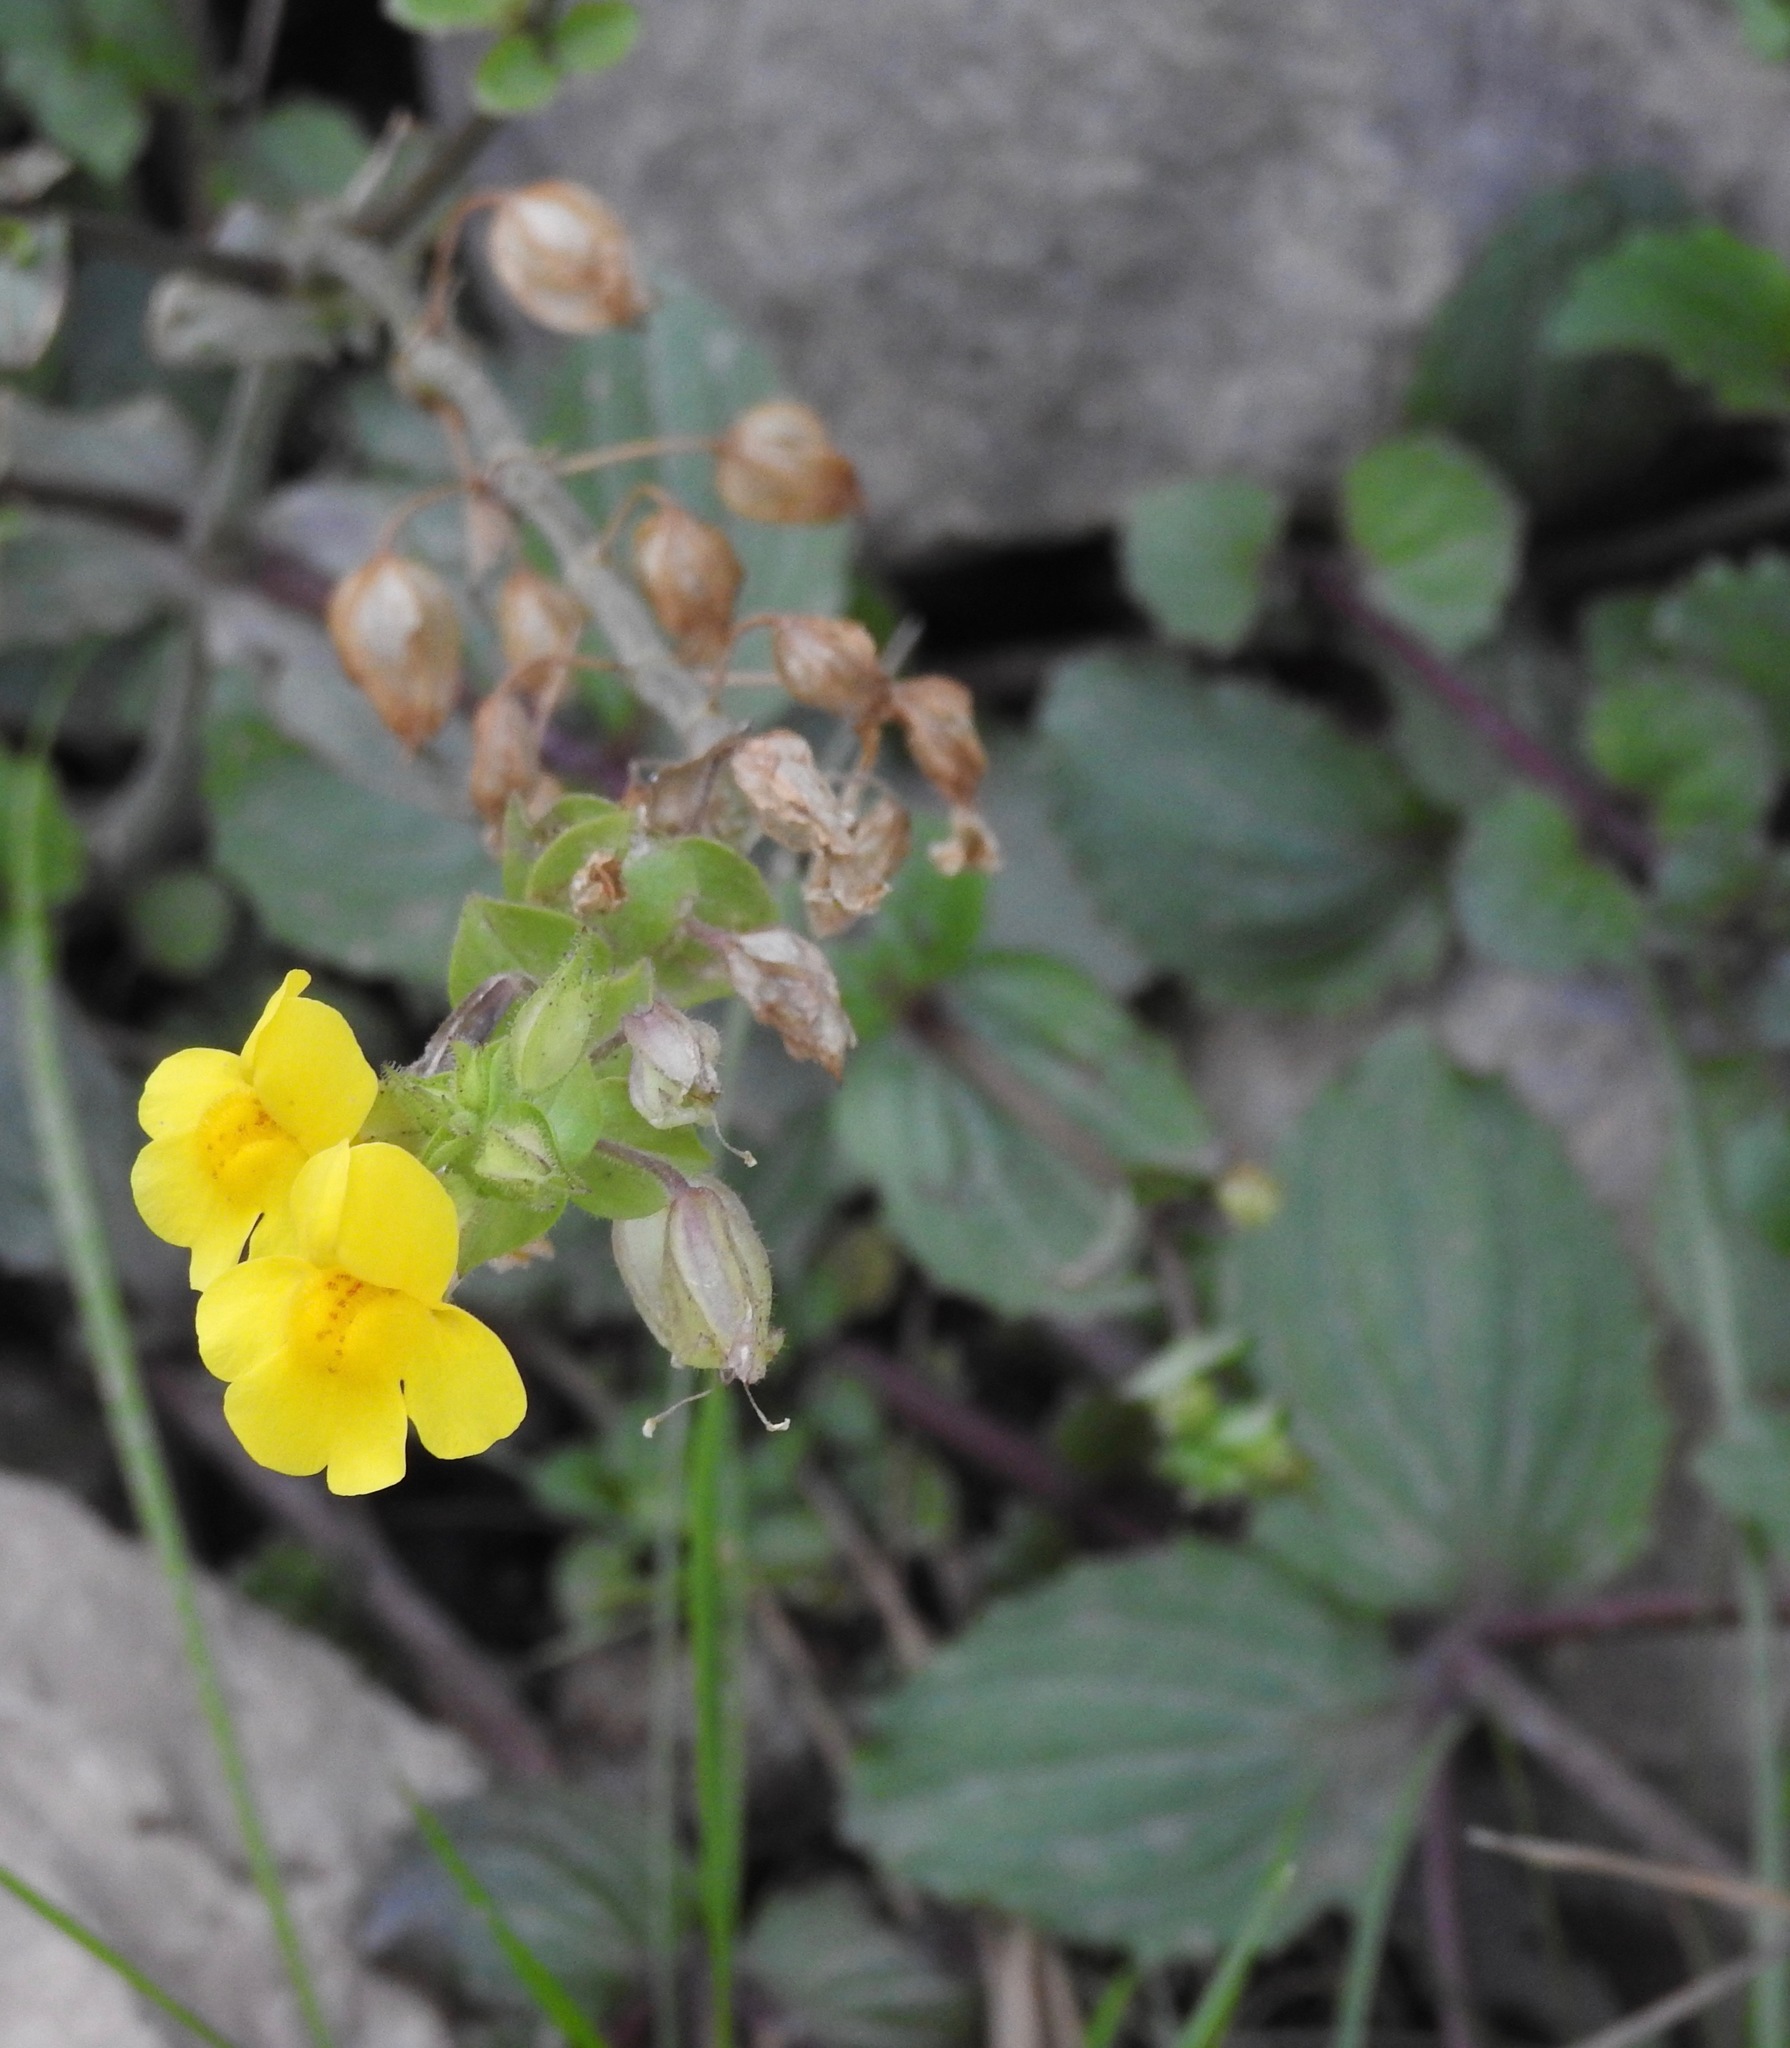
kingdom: Plantae
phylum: Tracheophyta
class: Magnoliopsida
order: Lamiales
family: Phrymaceae
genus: Erythranthe
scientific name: Erythranthe guttata
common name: Monkeyflower
